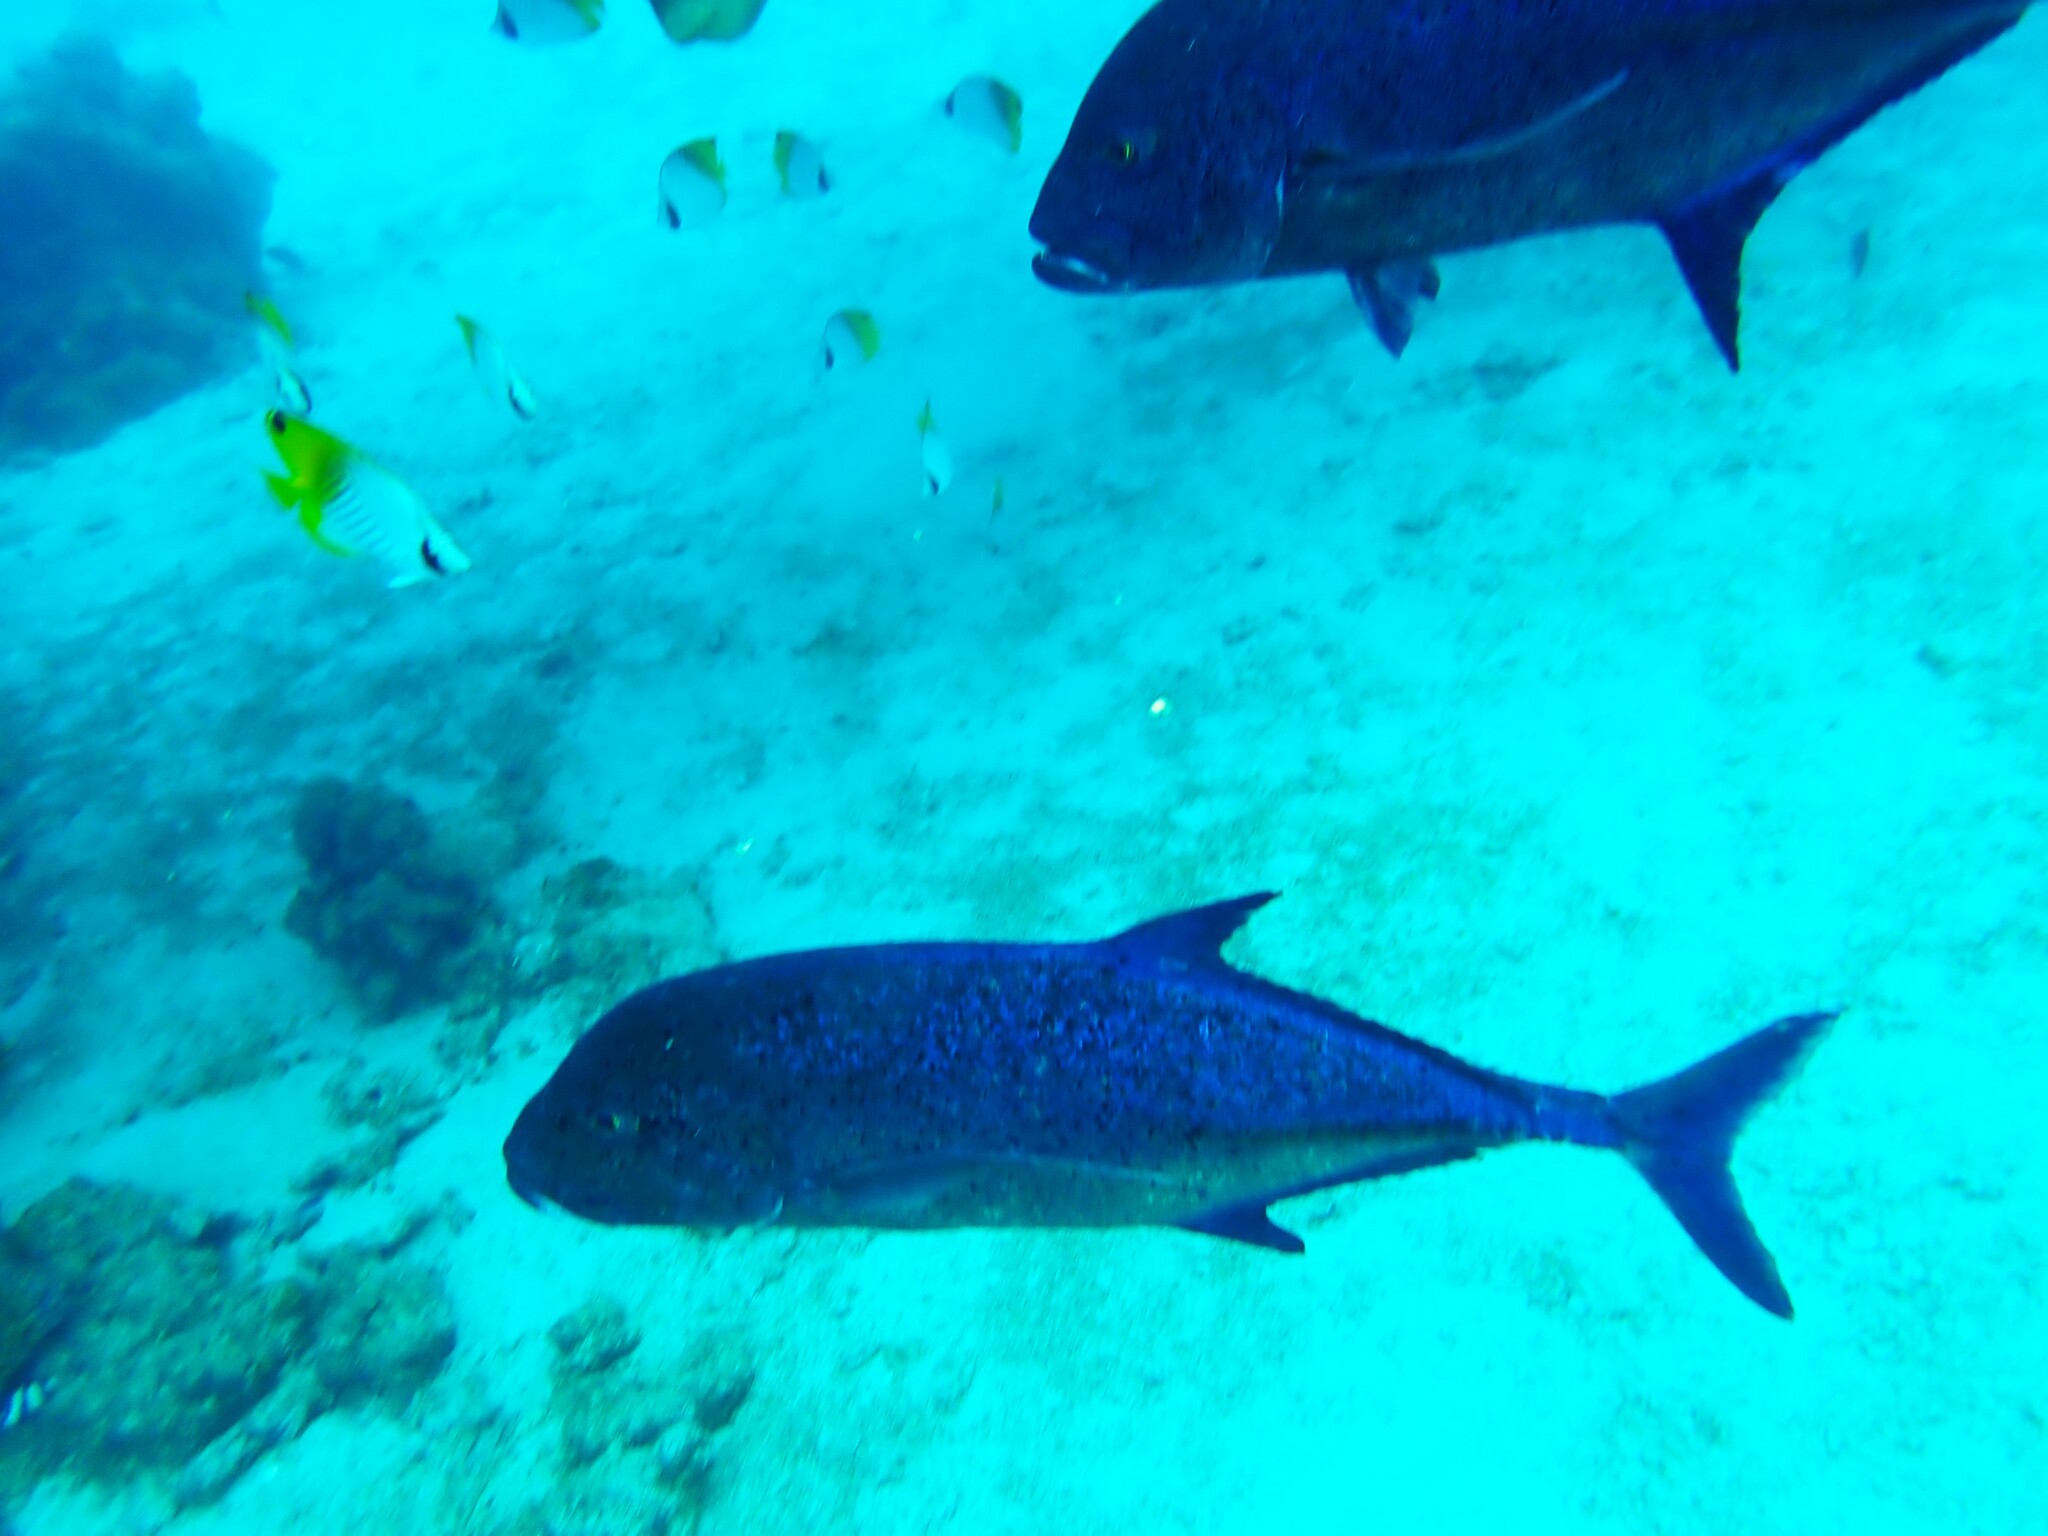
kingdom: Animalia
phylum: Chordata
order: Perciformes
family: Carangidae
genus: Caranx
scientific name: Caranx melampygus
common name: Bluefin trevally
